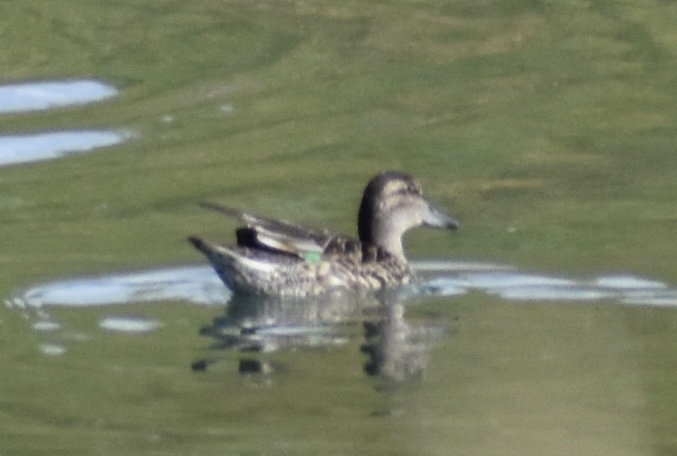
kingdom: Animalia
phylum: Chordata
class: Aves
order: Anseriformes
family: Anatidae
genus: Anas
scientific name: Anas crecca
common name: Eurasian teal
